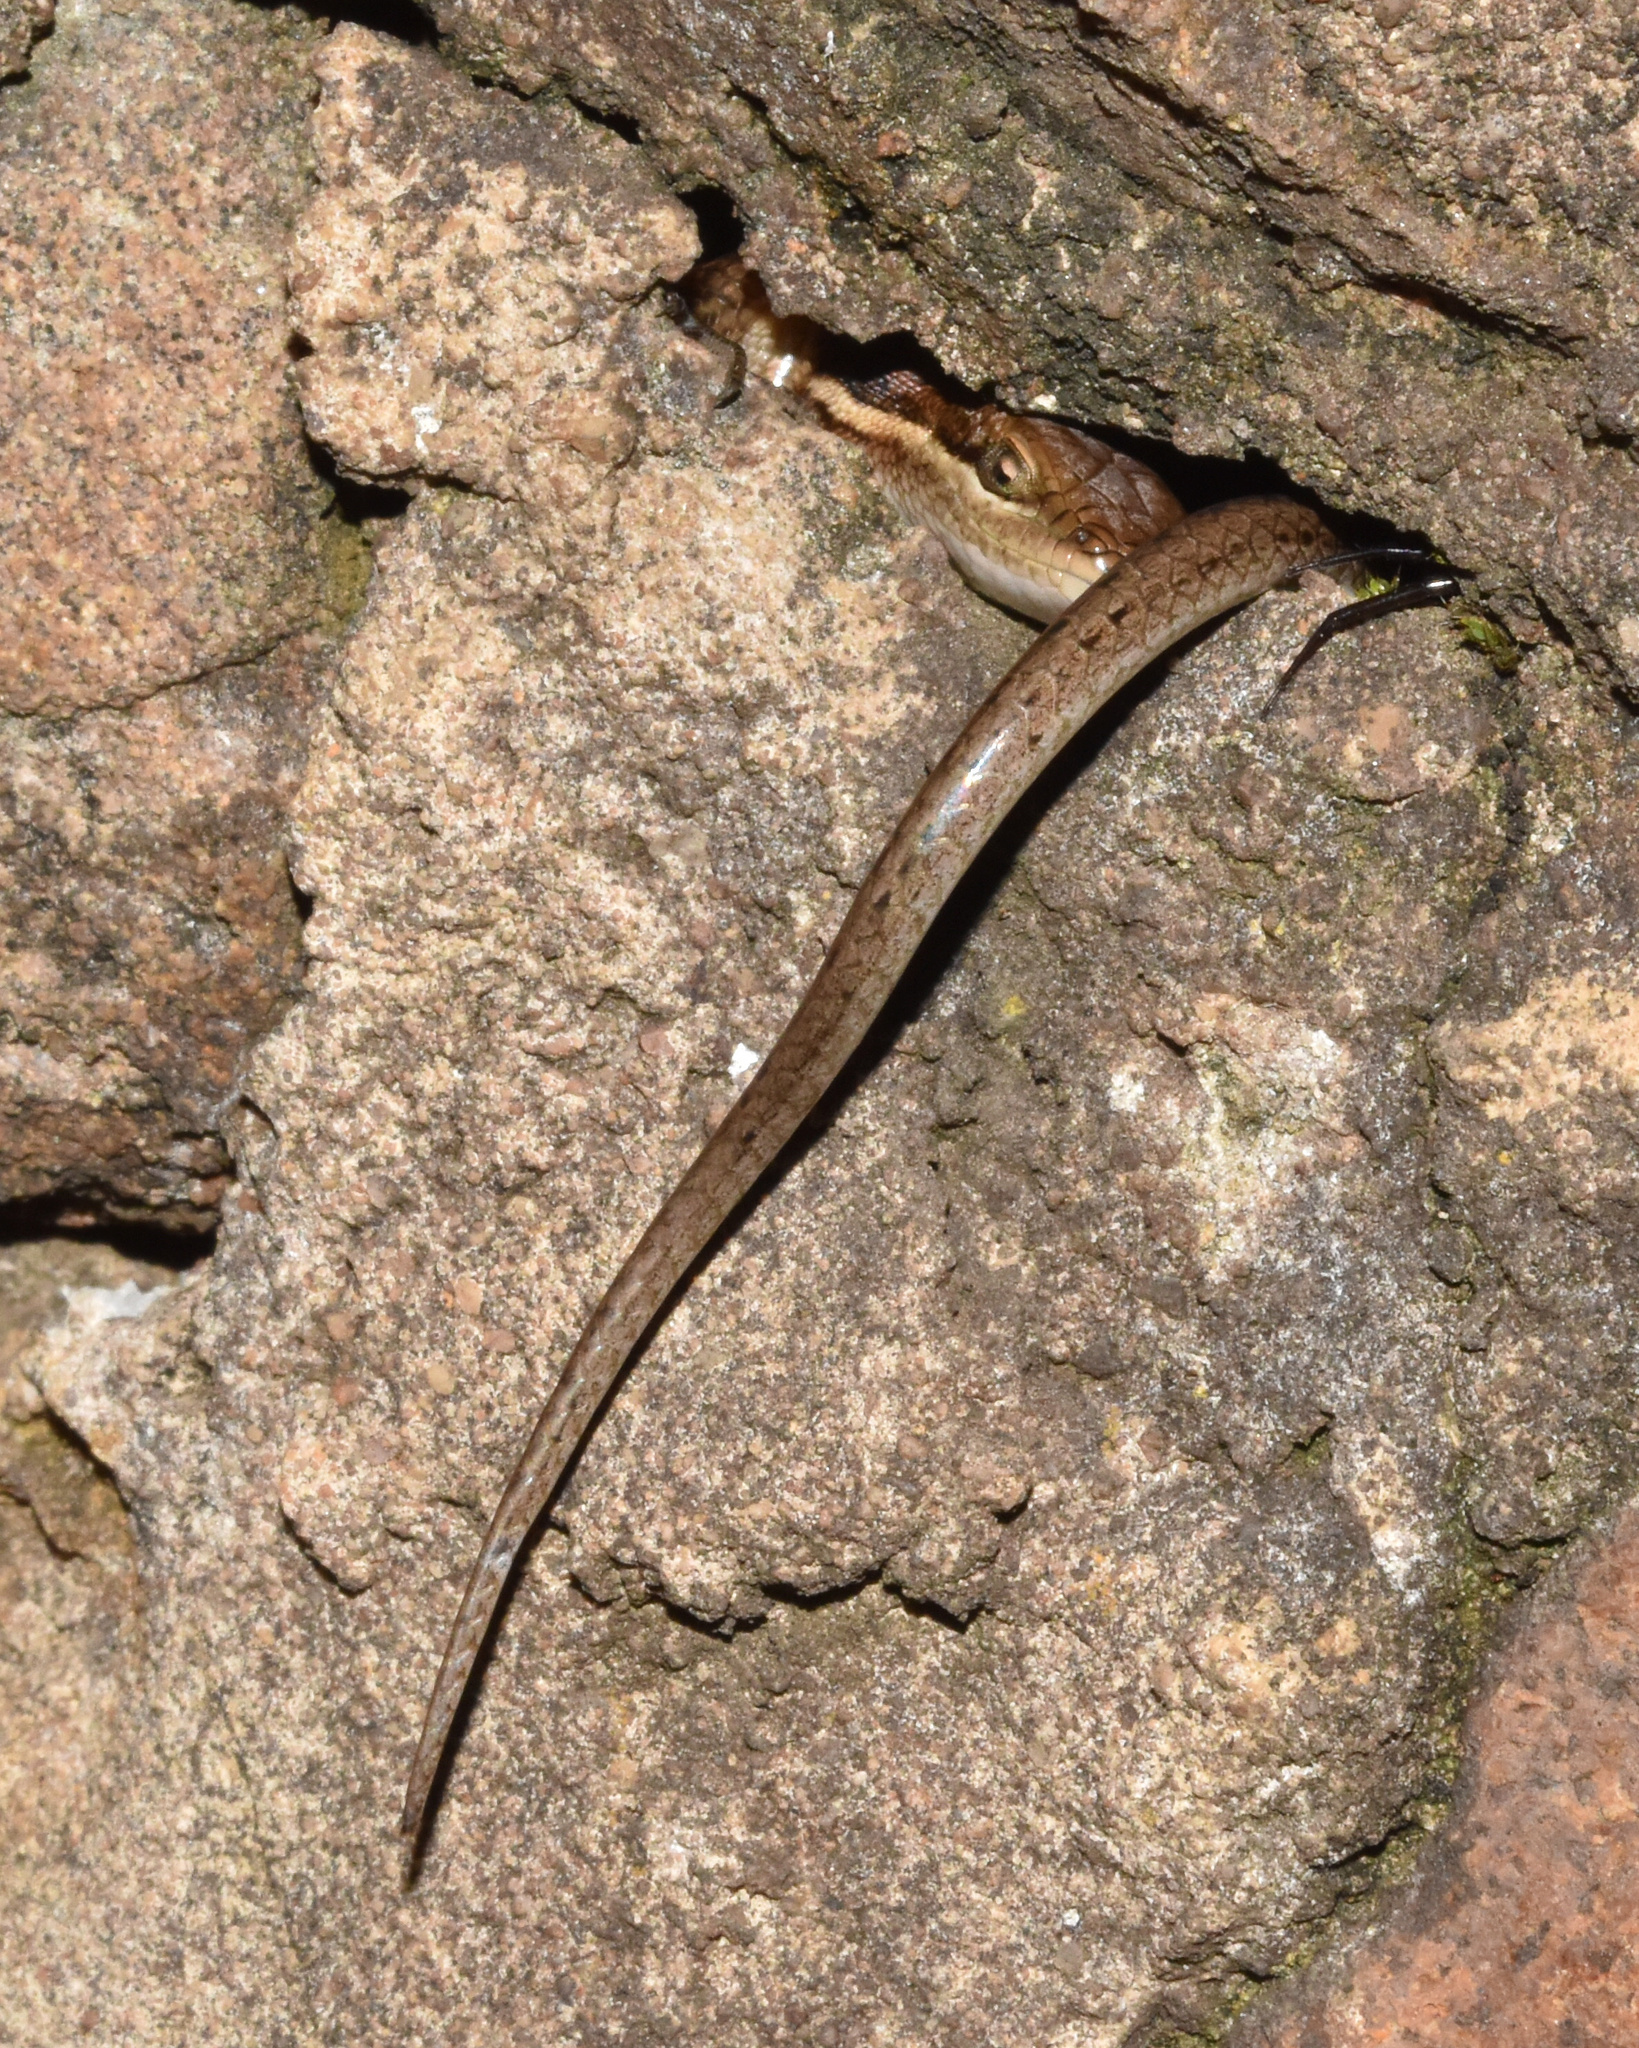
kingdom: Animalia
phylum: Chordata
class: Squamata
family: Scincidae
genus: Trachylepis
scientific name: Trachylepis varia
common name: Eastern variable skink
